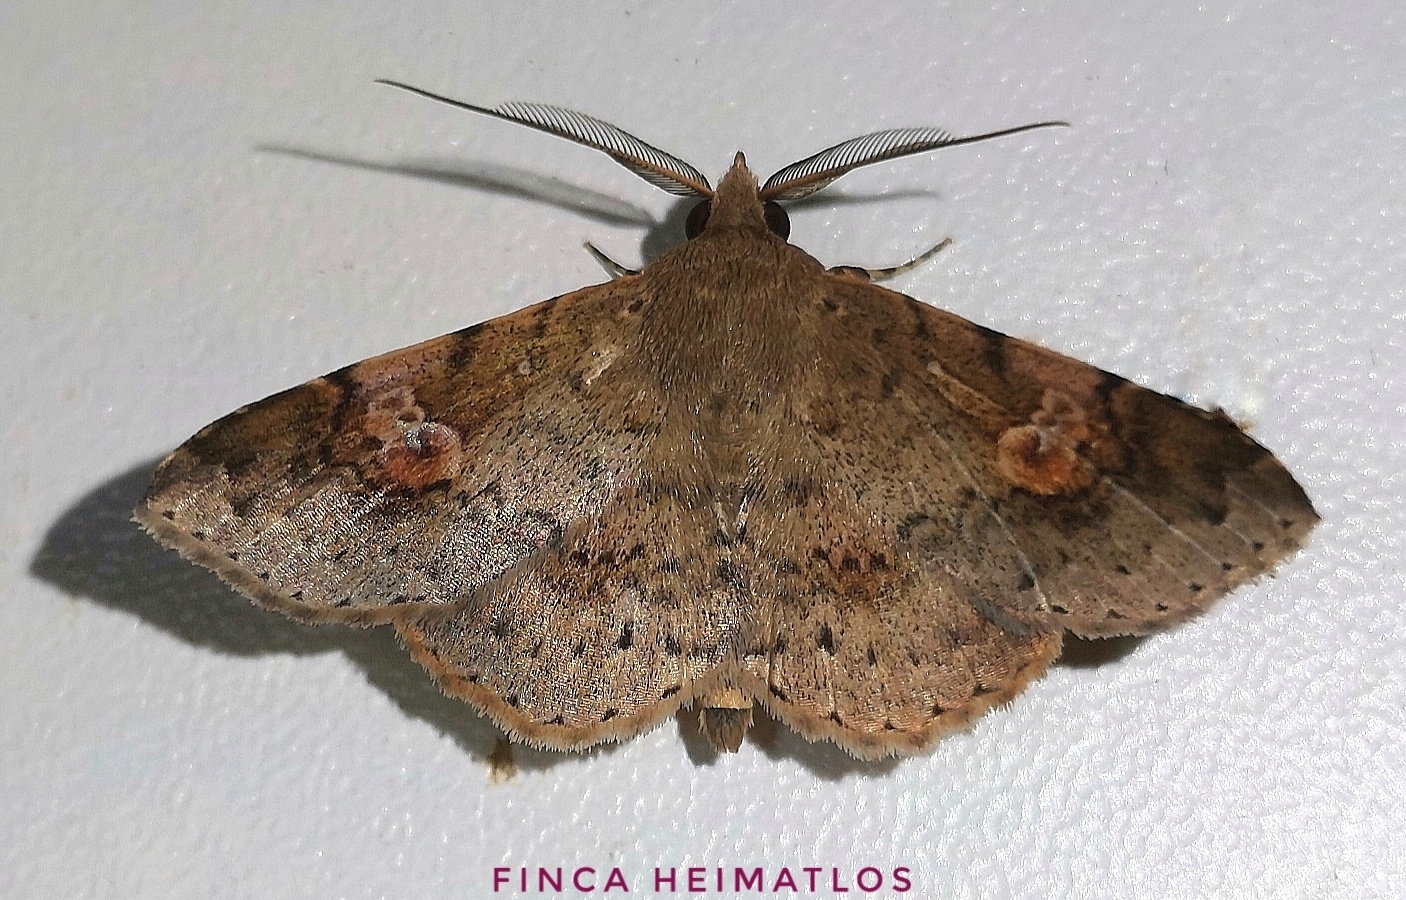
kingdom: Animalia
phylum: Arthropoda
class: Insecta
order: Lepidoptera
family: Erebidae
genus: Orsa
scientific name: Orsa erythrospila
